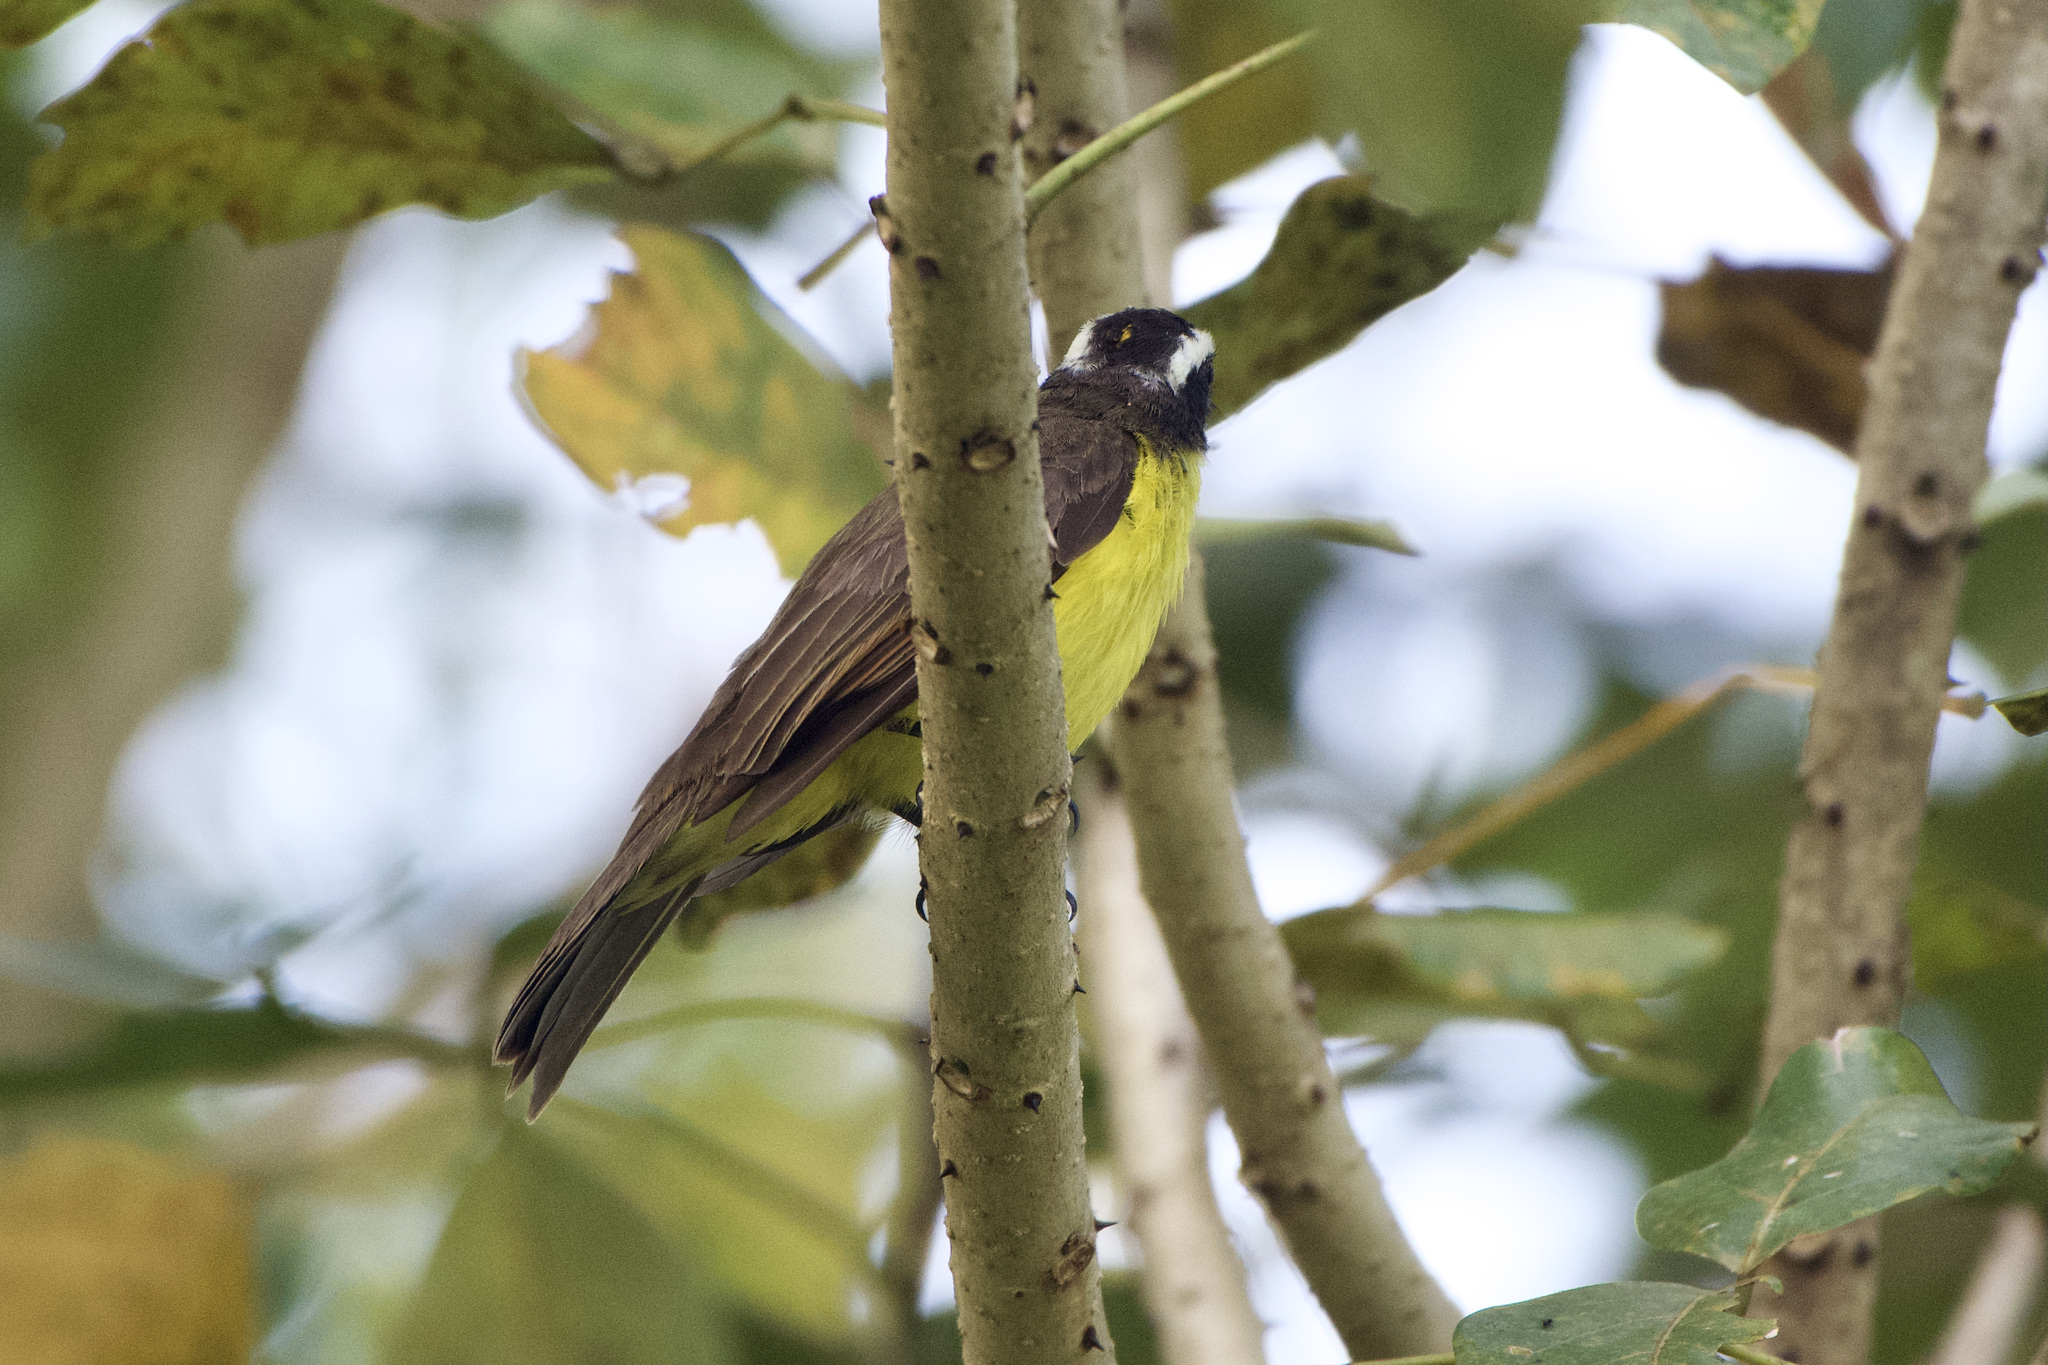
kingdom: Animalia
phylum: Chordata
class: Aves
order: Passeriformes
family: Tyrannidae
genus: Myiozetetes
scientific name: Myiozetetes cayanensis
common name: Rusty-margined flycatcher
